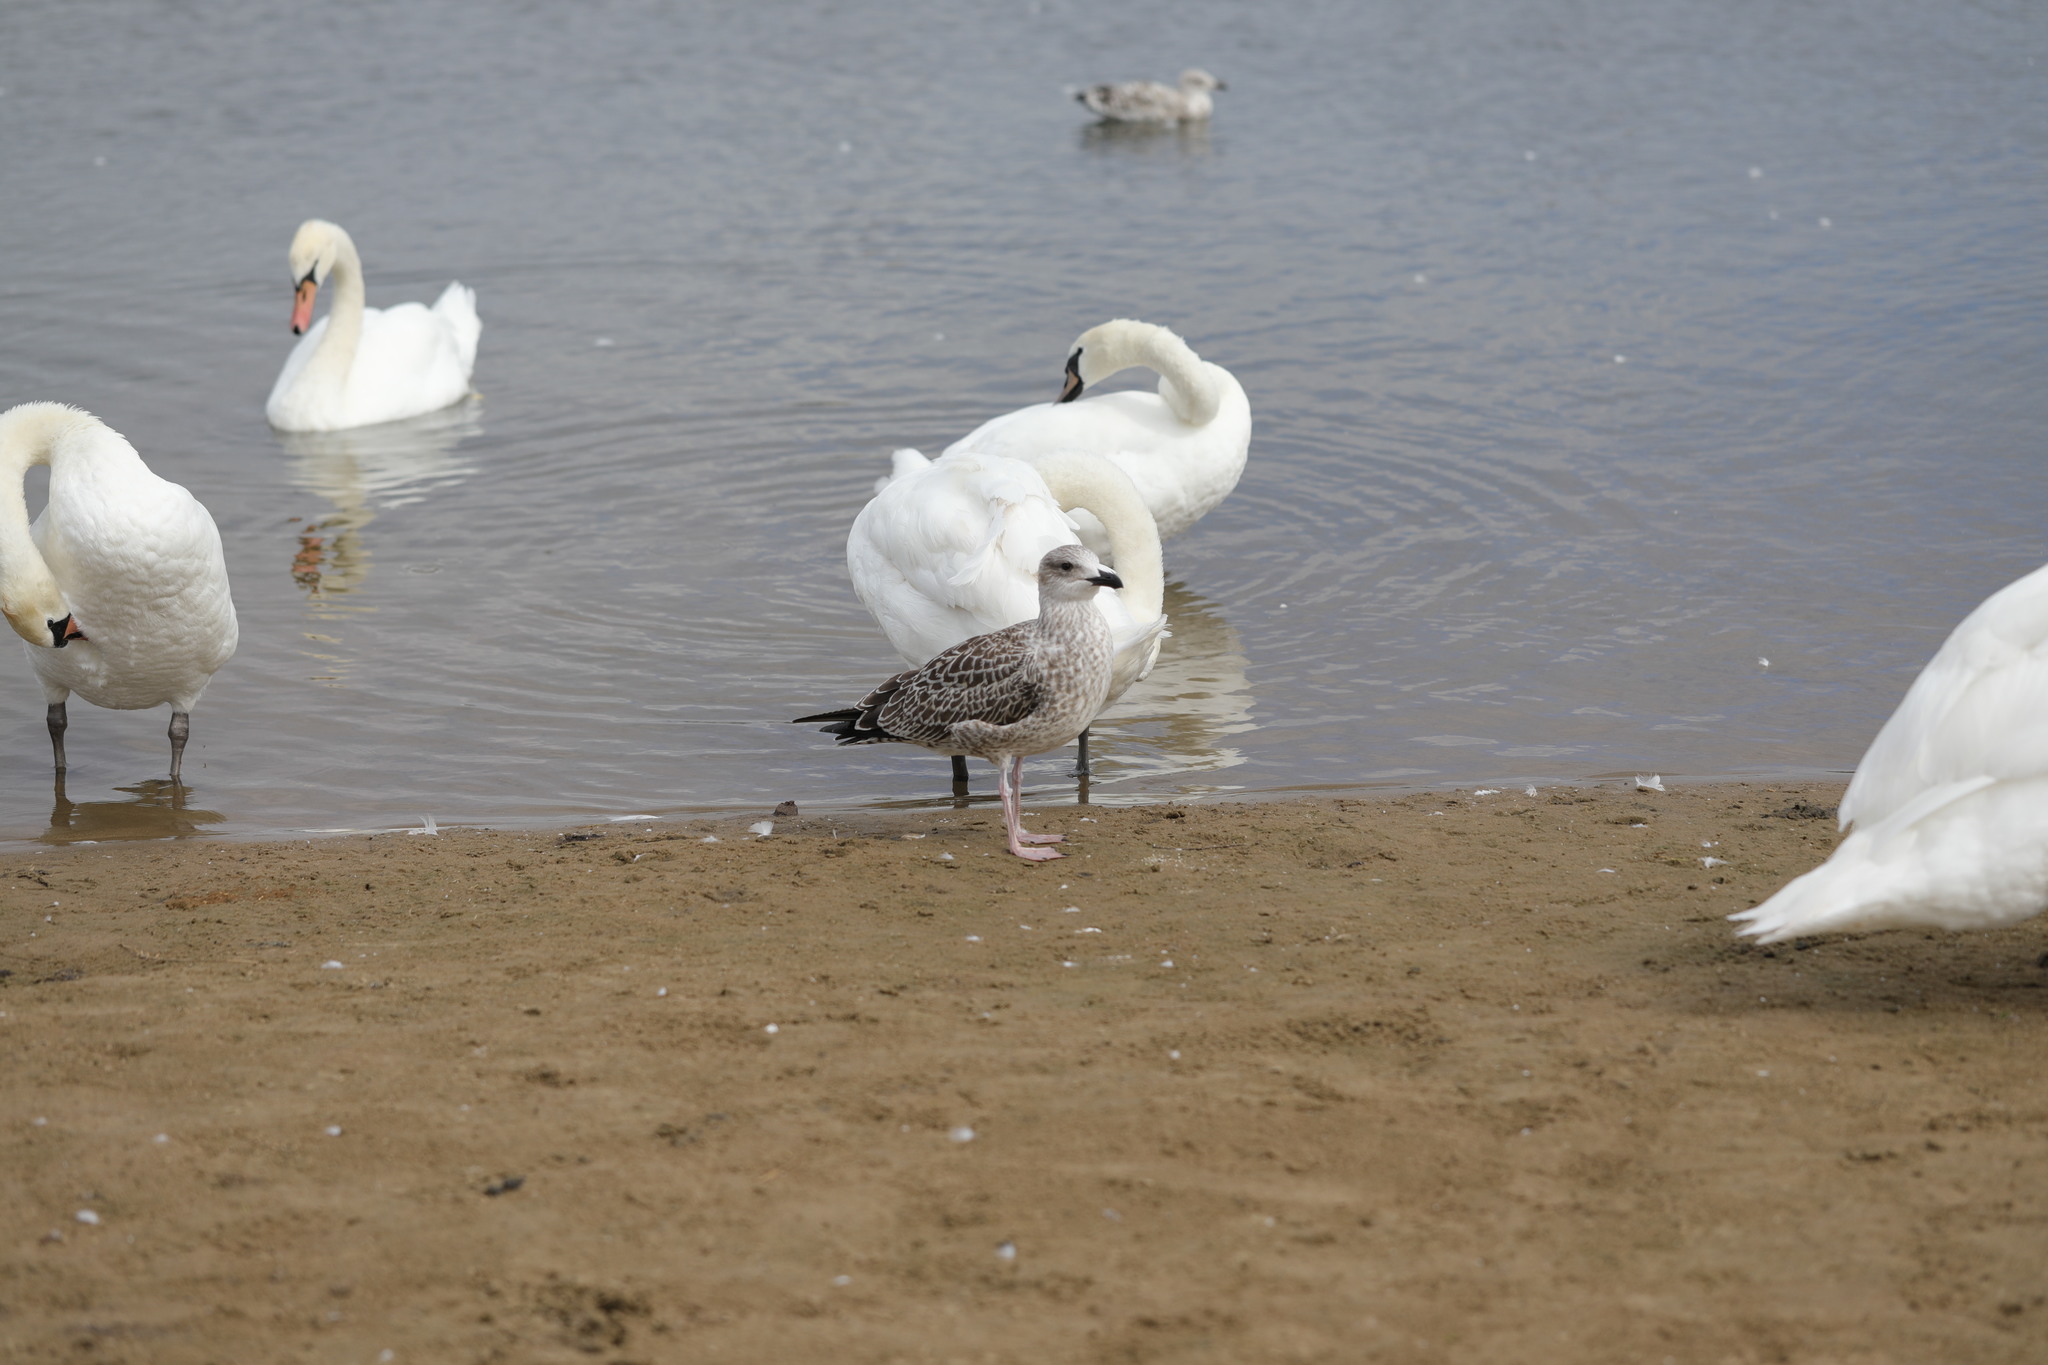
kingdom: Animalia
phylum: Chordata
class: Aves
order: Charadriiformes
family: Laridae
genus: Larus
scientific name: Larus argentatus
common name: Herring gull
